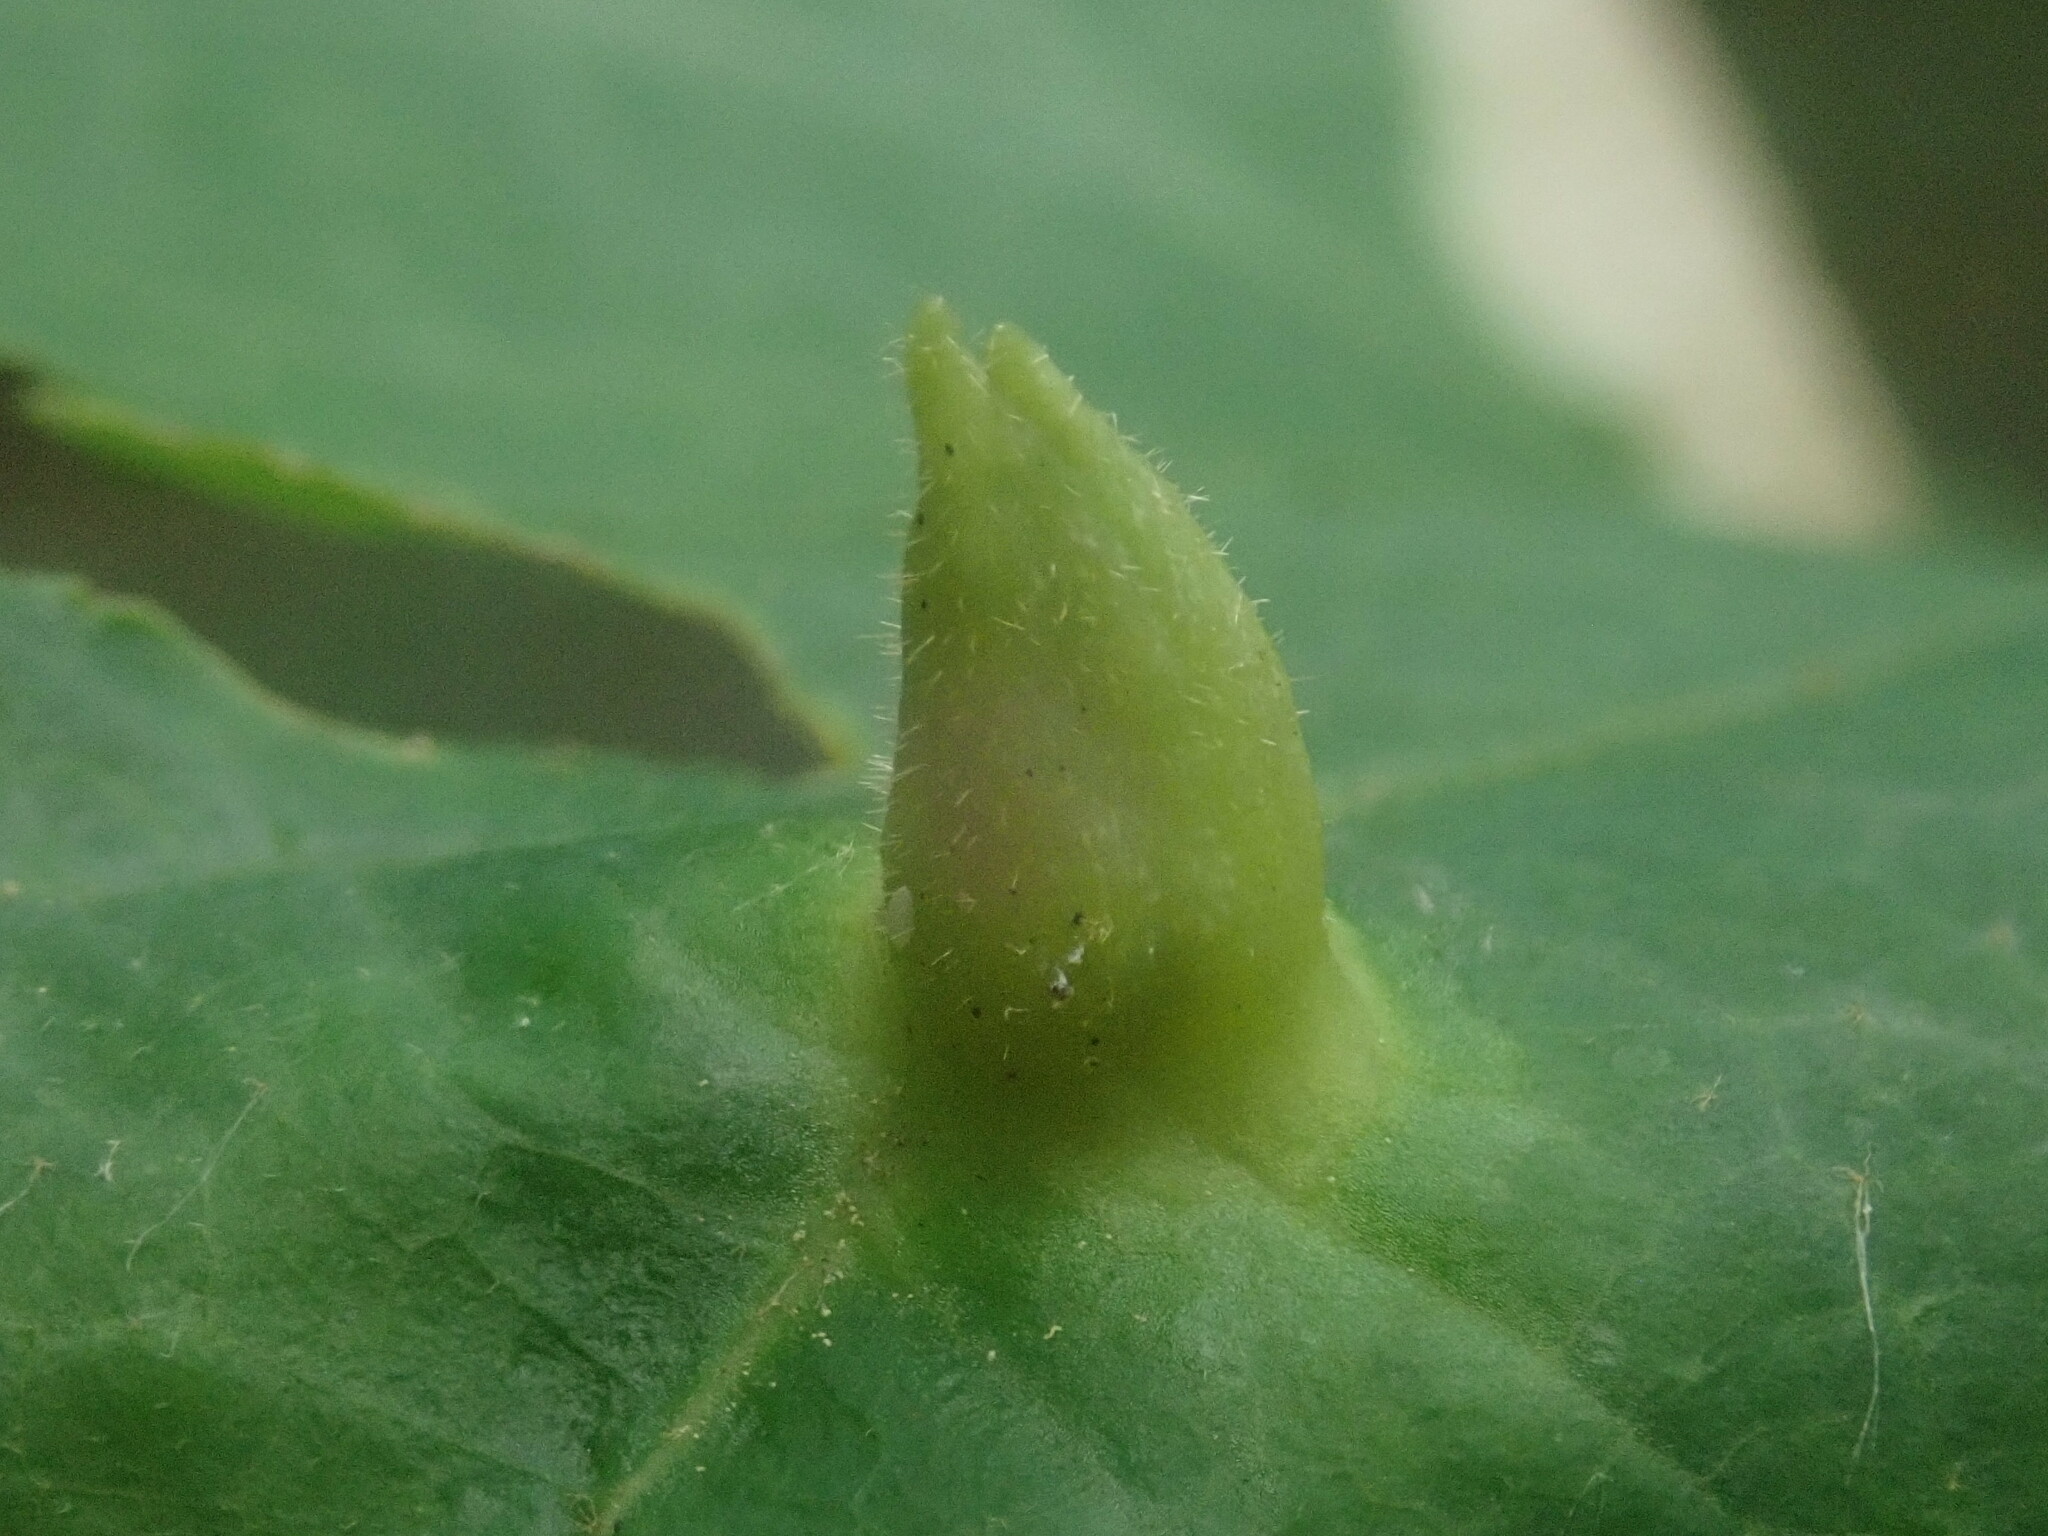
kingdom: Animalia
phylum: Arthropoda
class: Insecta
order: Hemiptera
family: Aphididae
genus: Hormaphis
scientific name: Hormaphis hamamelidis
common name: Witch-hazel cone gall aphid
